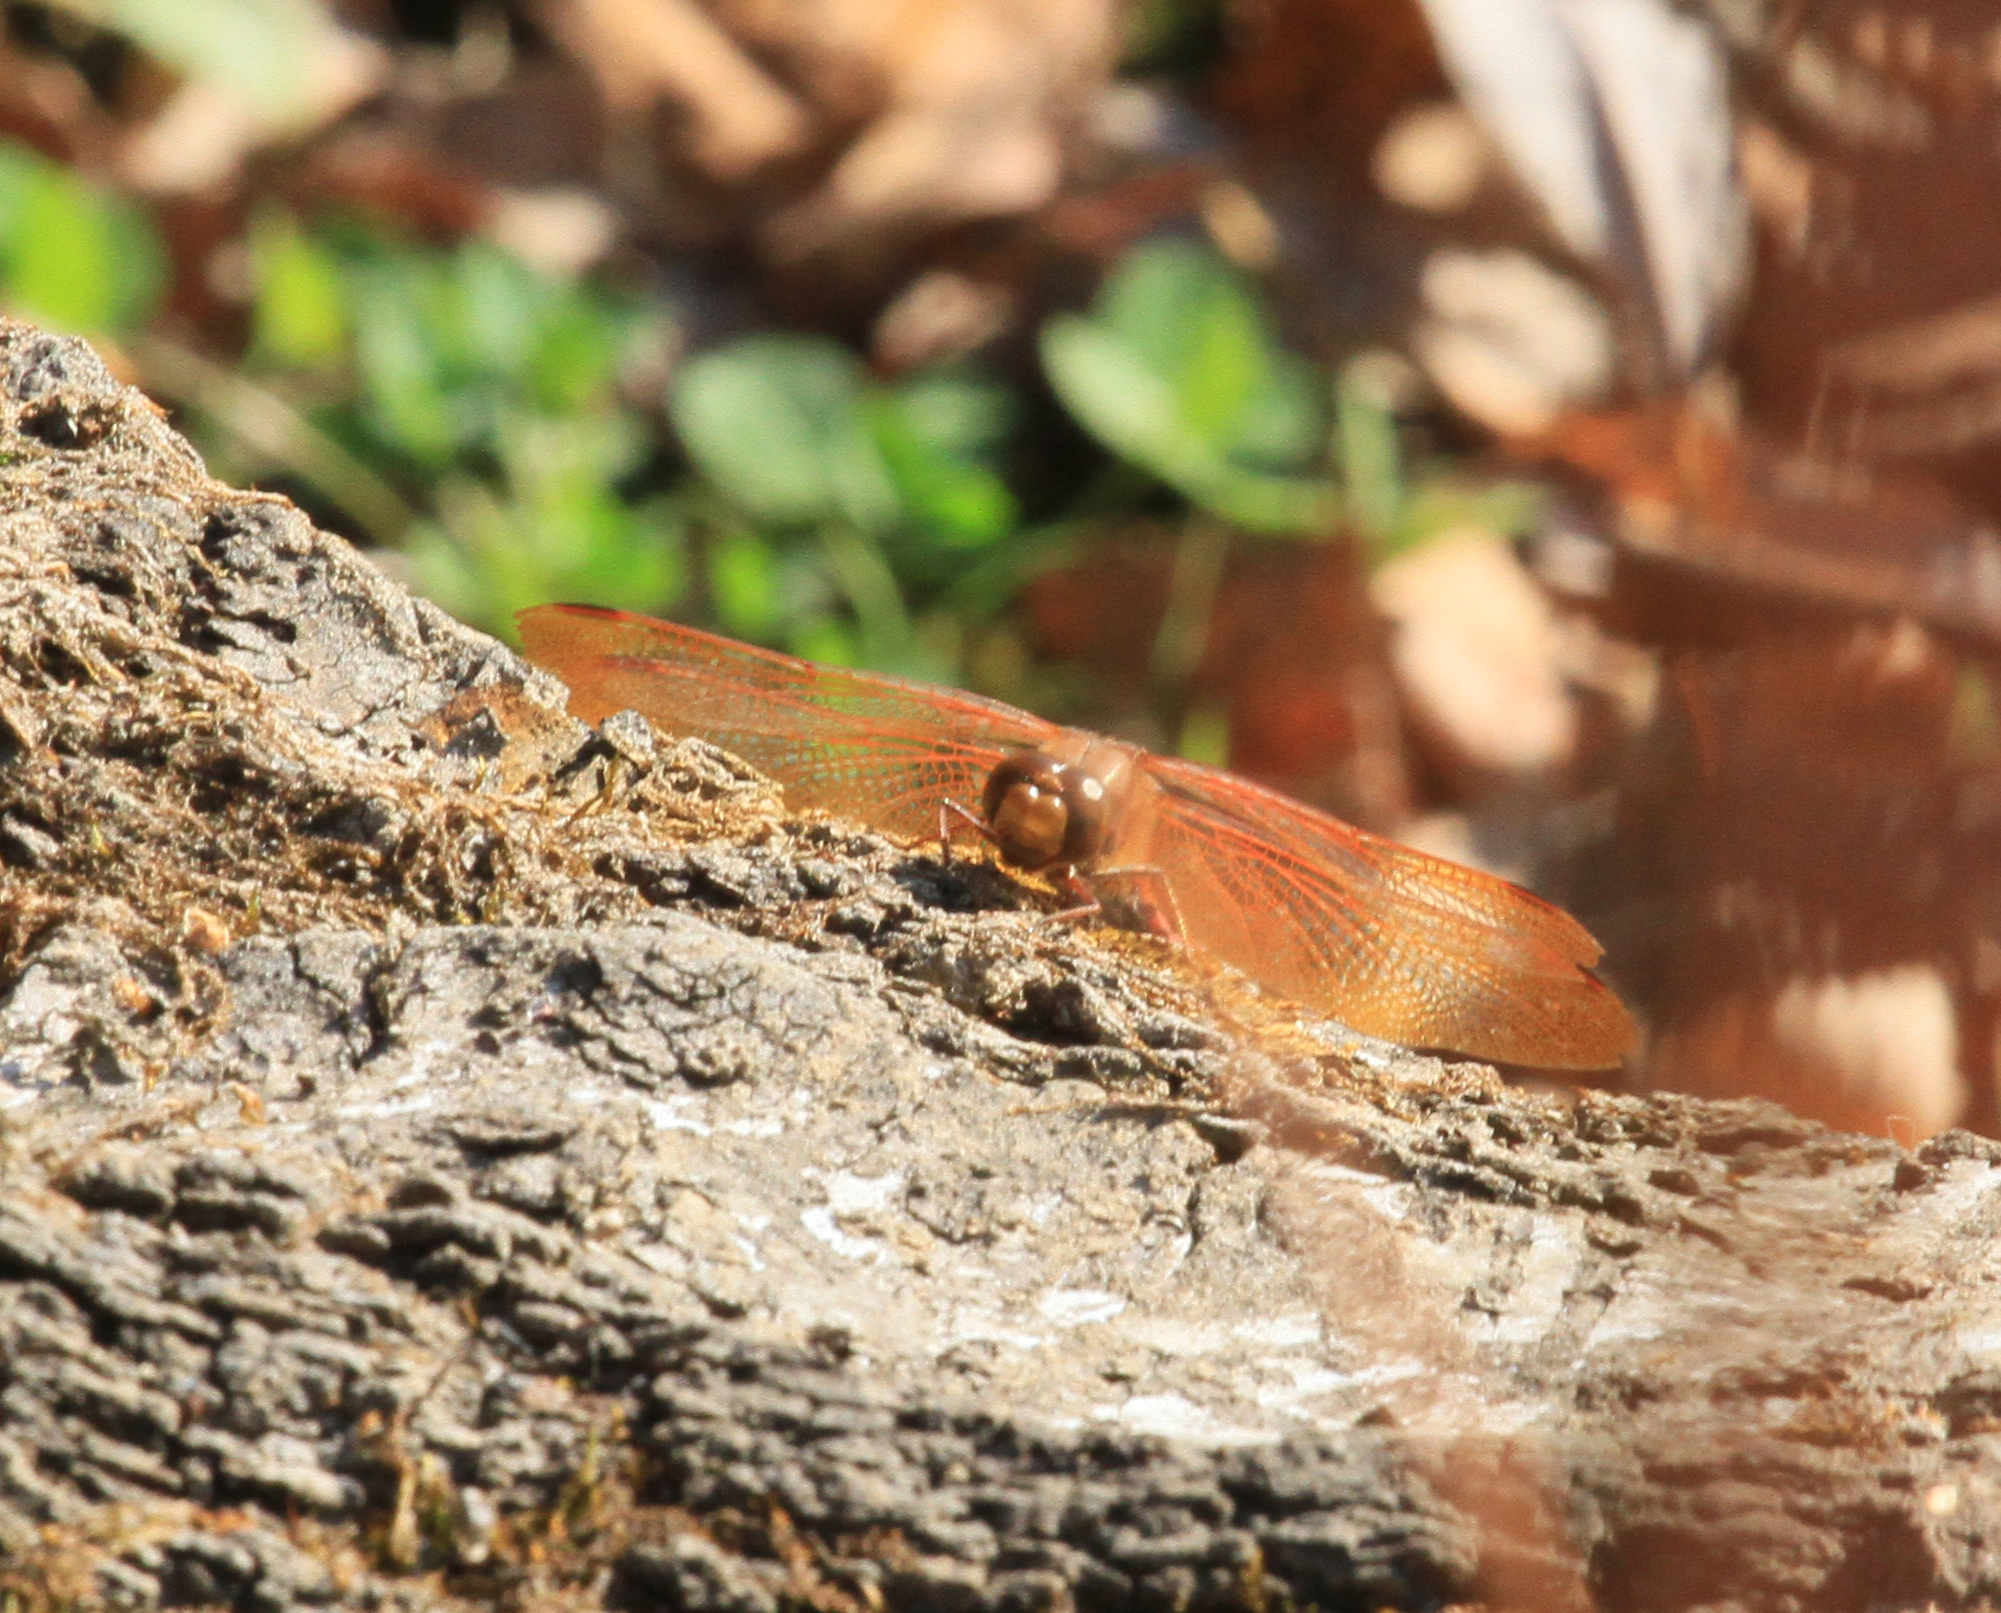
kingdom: Animalia
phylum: Arthropoda
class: Insecta
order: Odonata
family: Libellulidae
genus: Sympetrum
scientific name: Sympetrum croceolum
